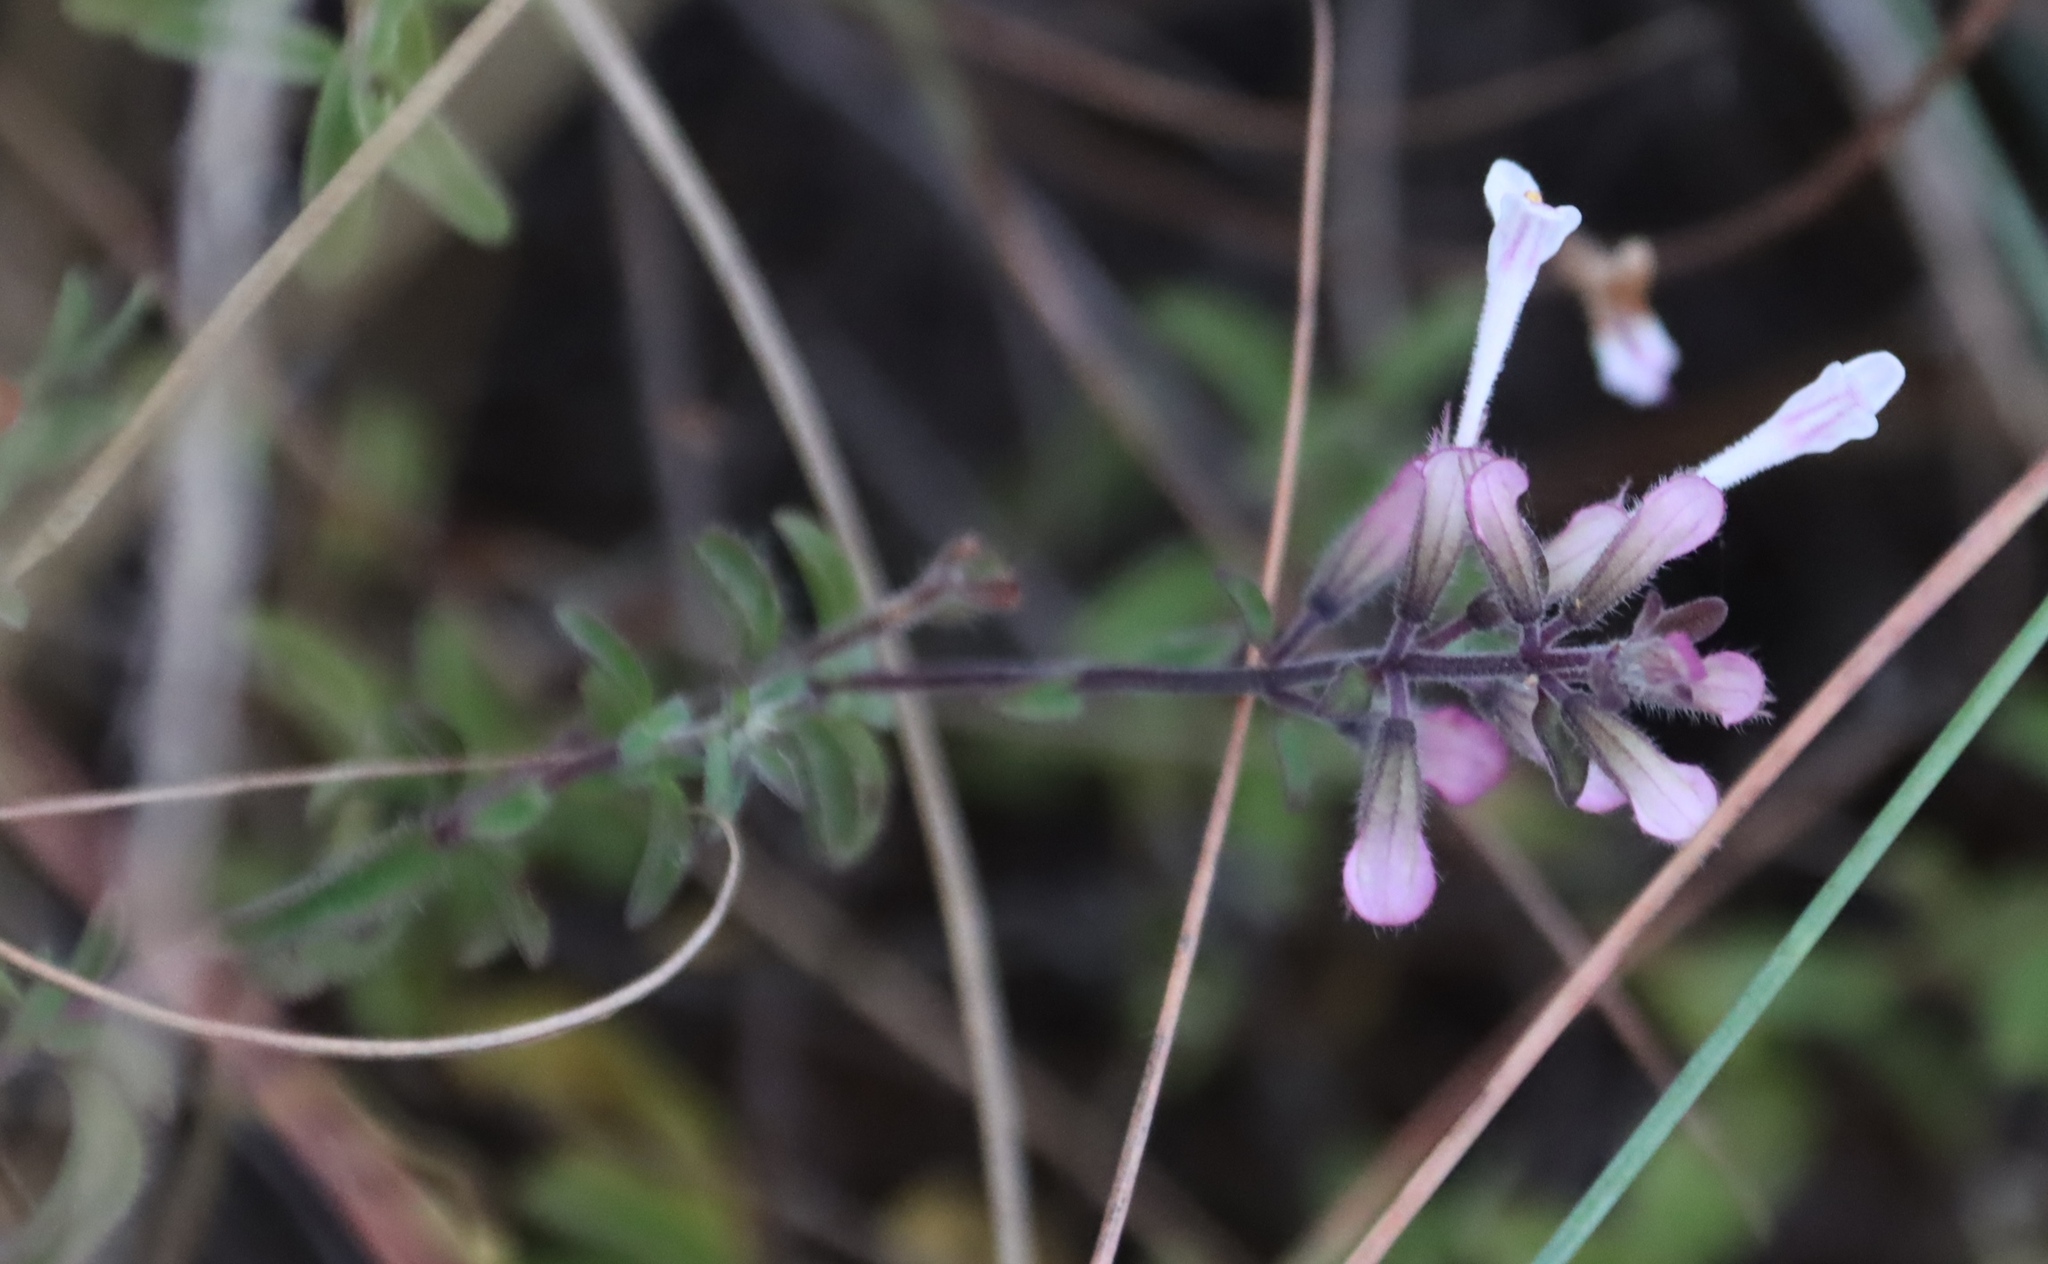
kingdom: Plantae
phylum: Tracheophyta
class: Magnoliopsida
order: Lamiales
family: Lamiaceae
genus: Syncolostemon
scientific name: Syncolostemon pretoriae
